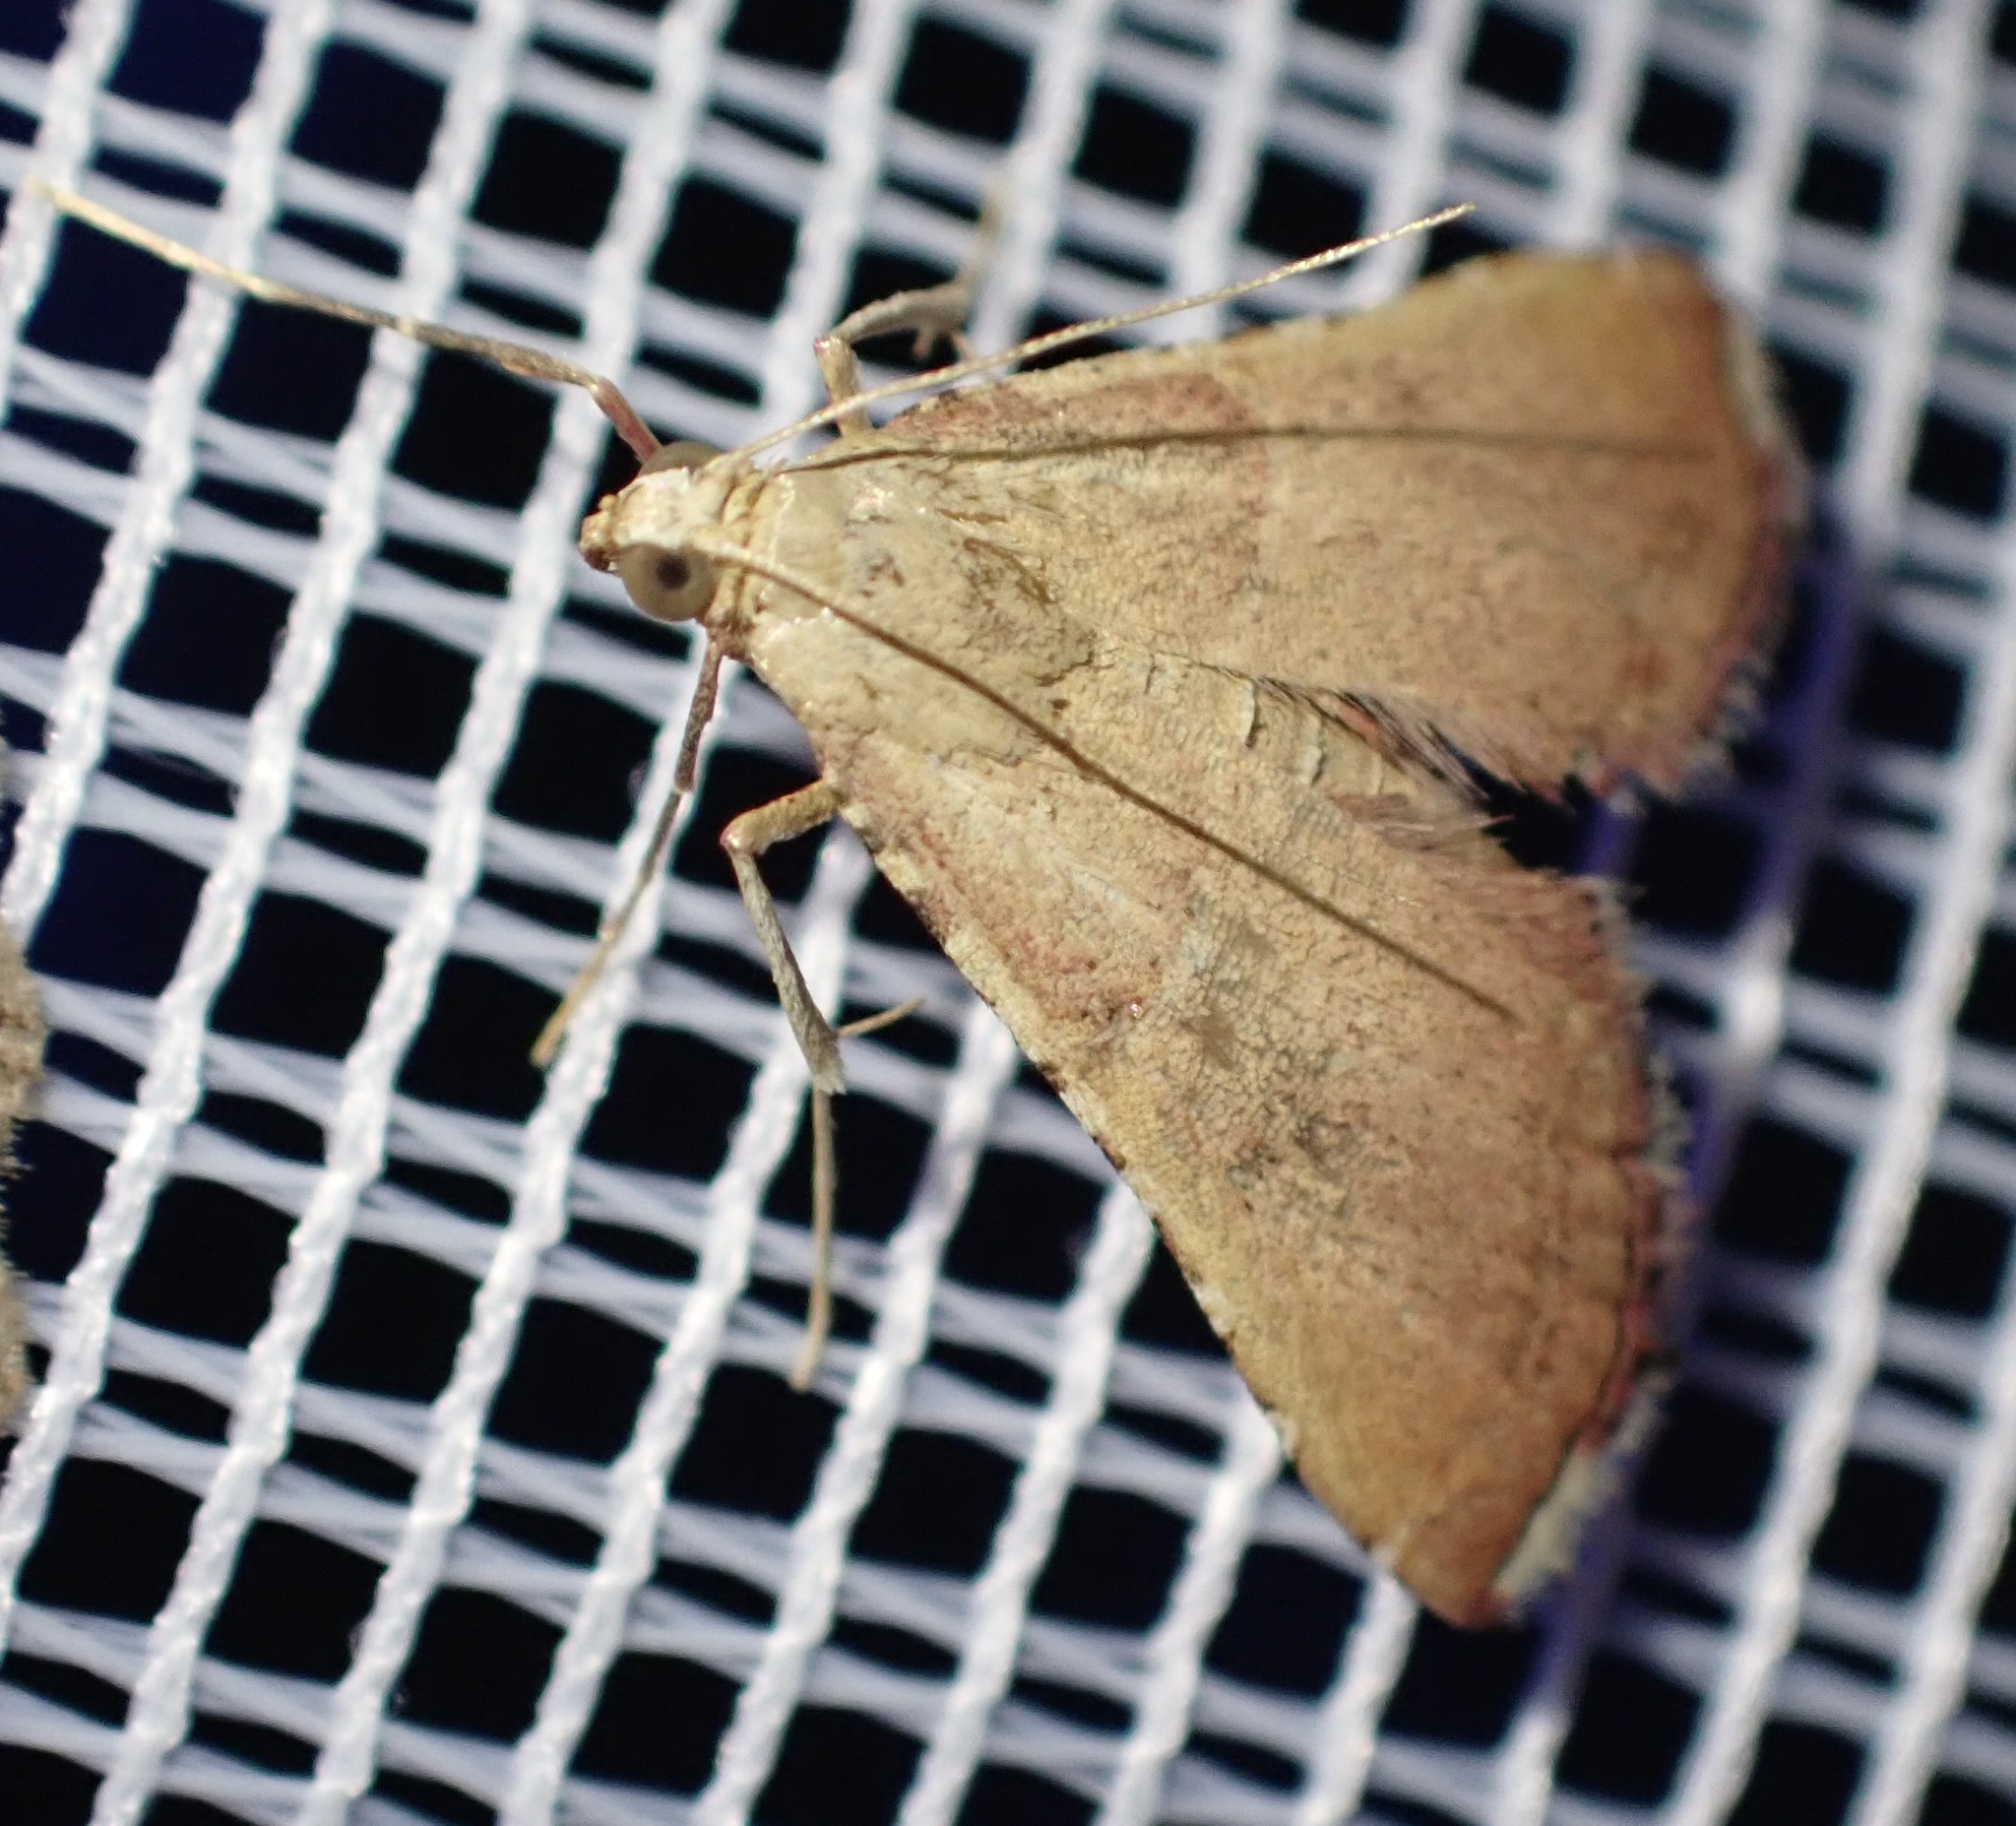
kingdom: Animalia
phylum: Arthropoda
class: Insecta
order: Lepidoptera
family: Pyralidae
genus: Endotricha
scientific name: Endotricha flammealis
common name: Rosy tabby
